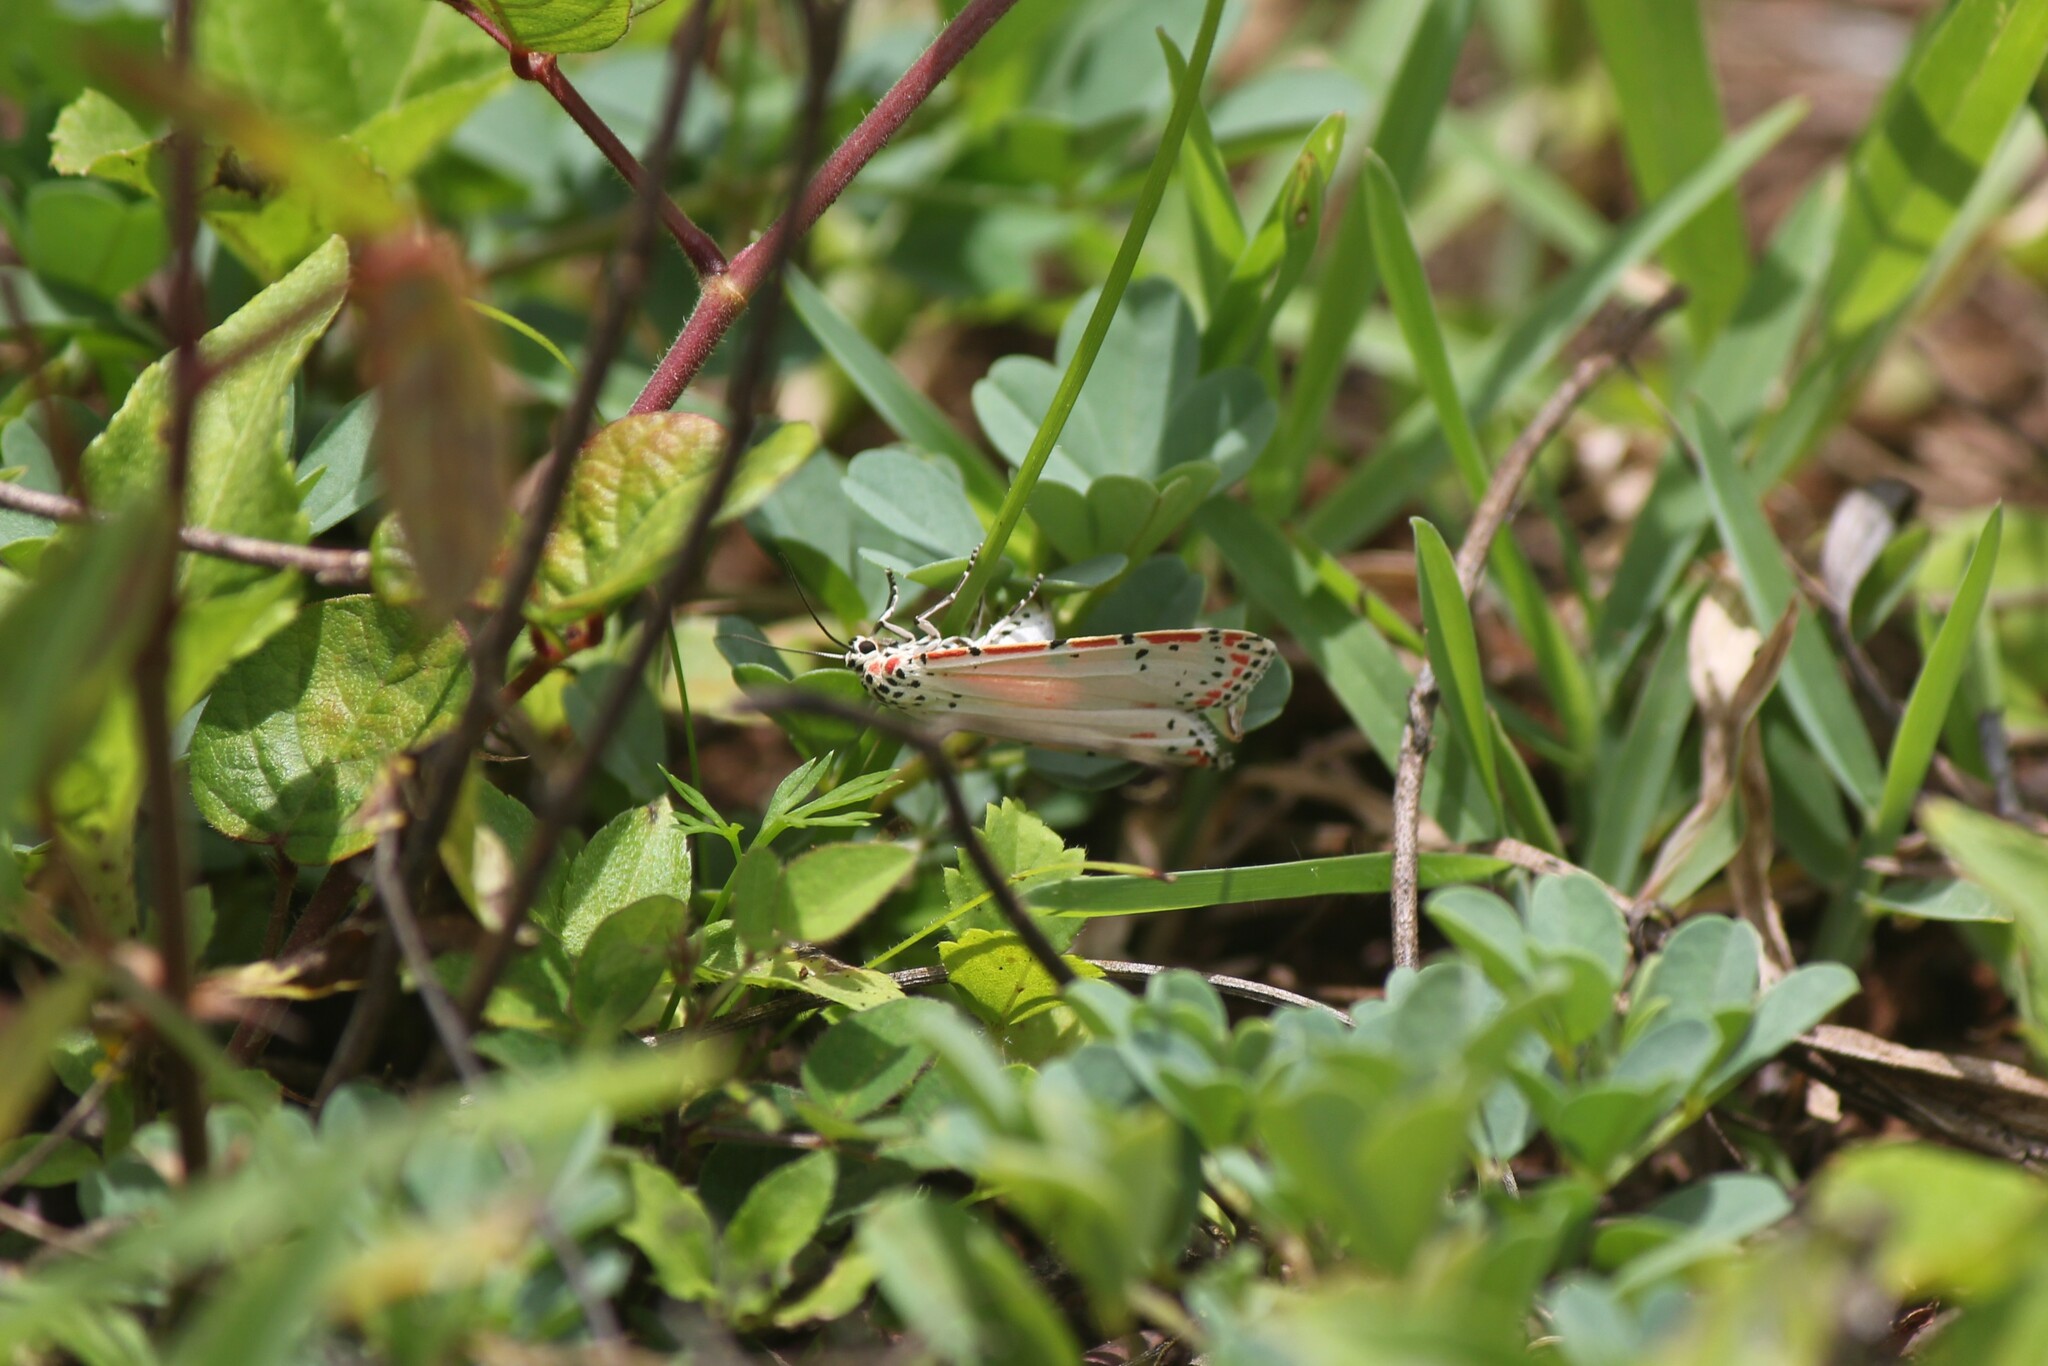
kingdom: Animalia
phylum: Arthropoda
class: Insecta
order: Lepidoptera
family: Erebidae
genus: Utetheisa
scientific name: Utetheisa ornatrix
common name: Beautiful utetheisa
